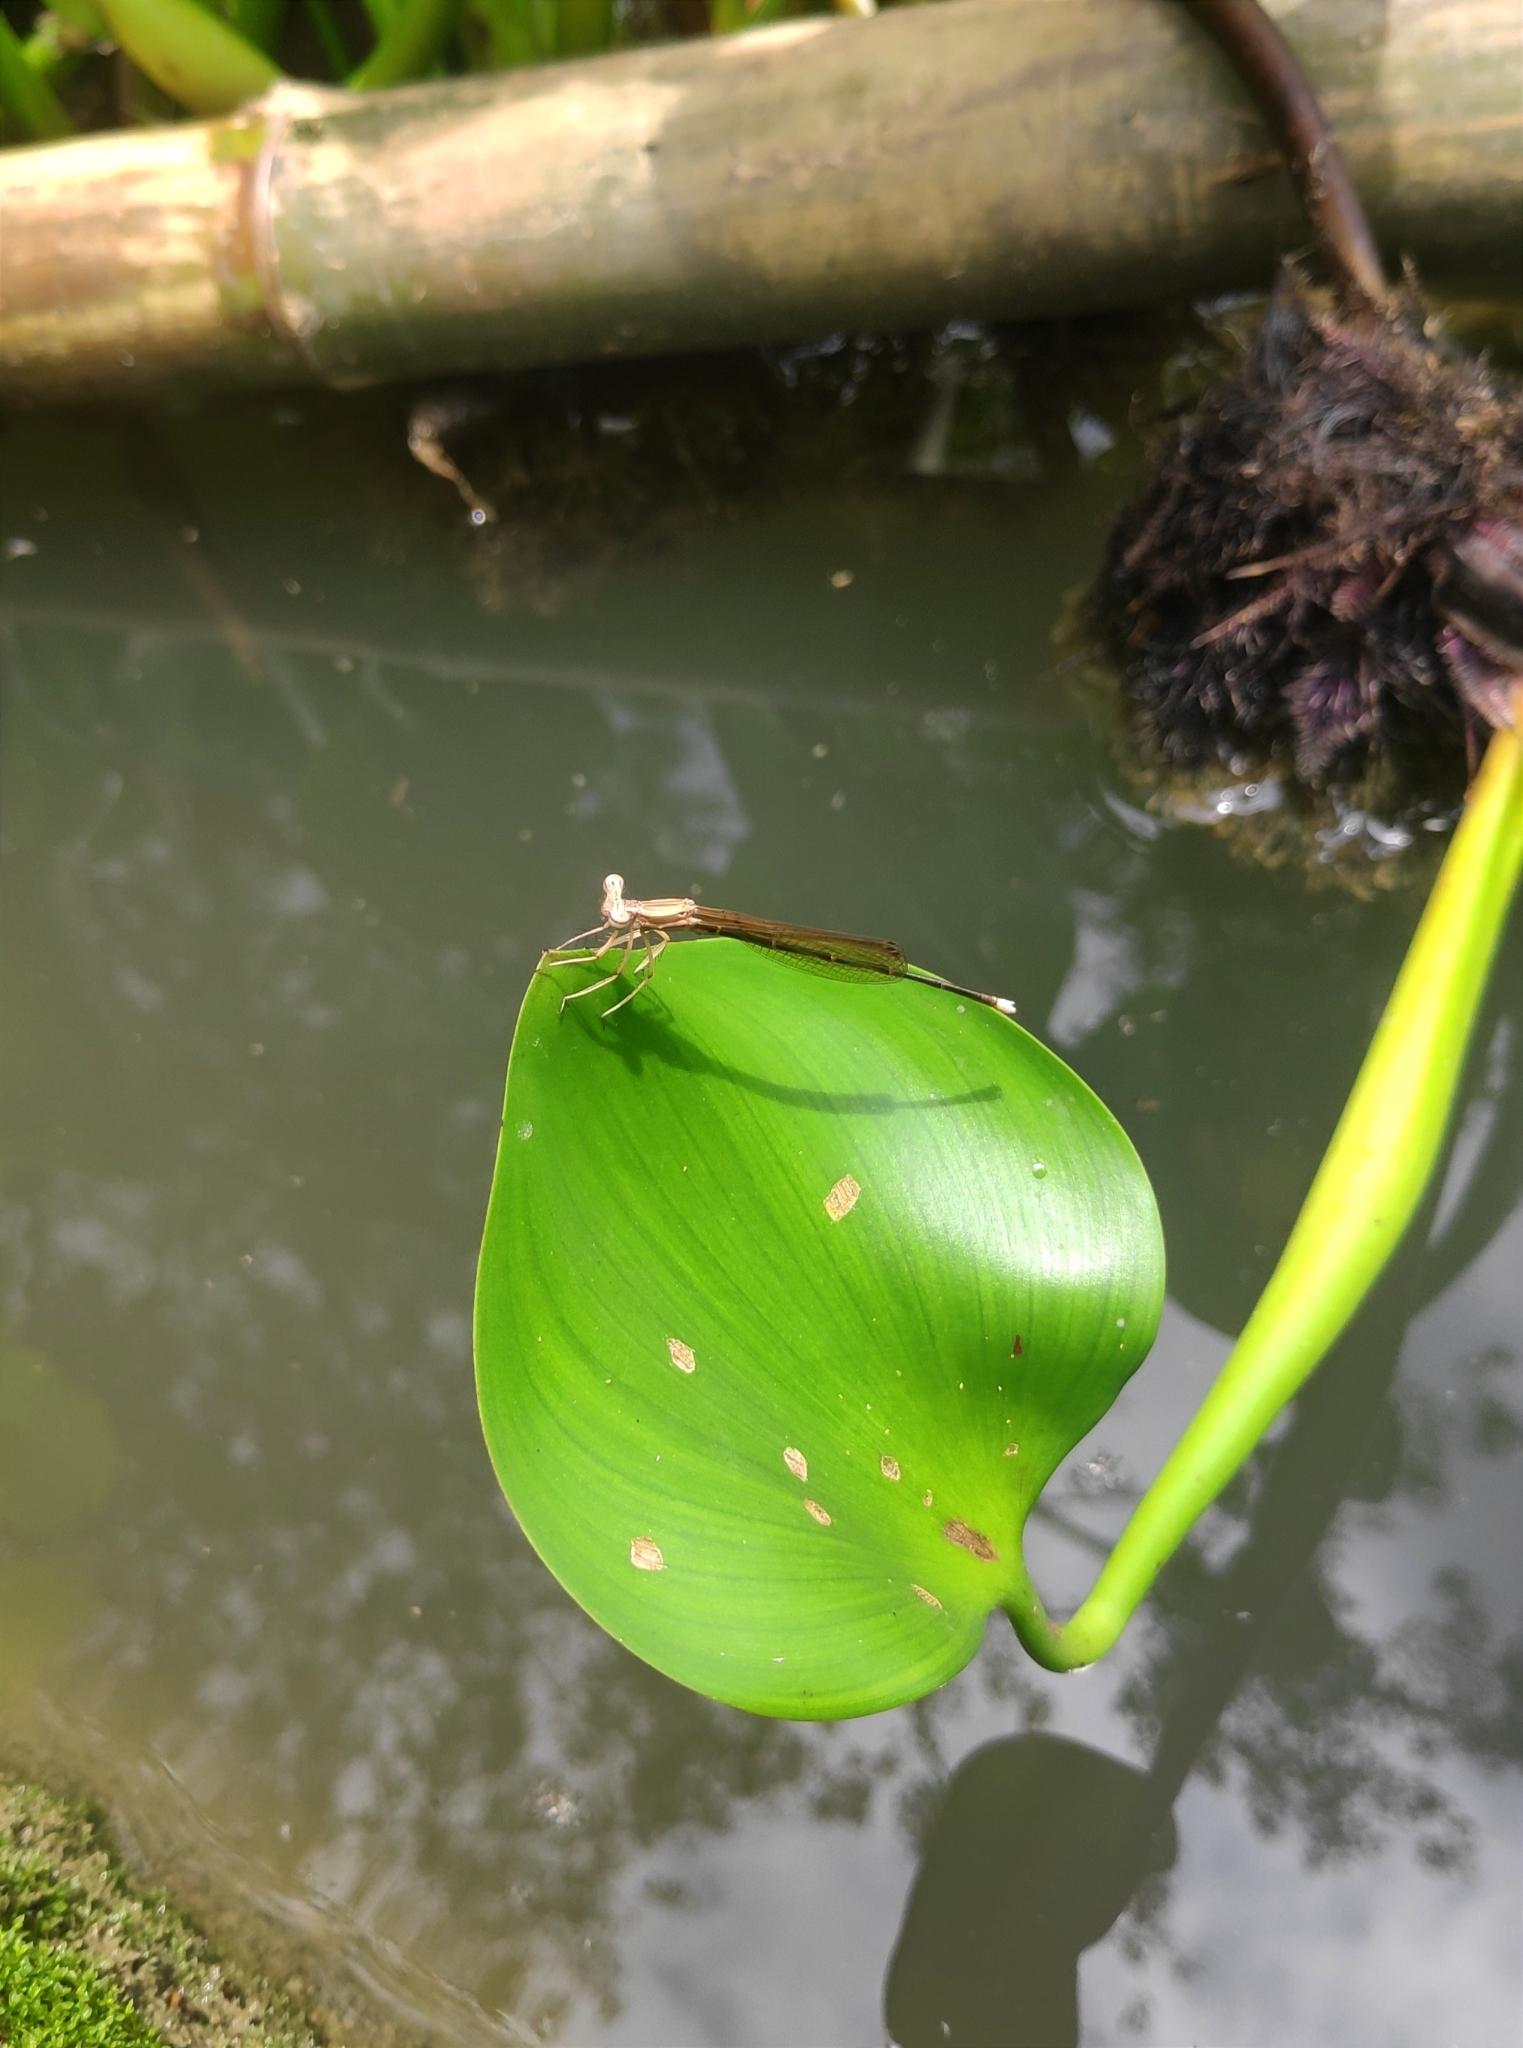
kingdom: Animalia
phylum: Arthropoda
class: Insecta
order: Odonata
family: Platycnemididae
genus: Pseudocopera
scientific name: Pseudocopera ciliata
